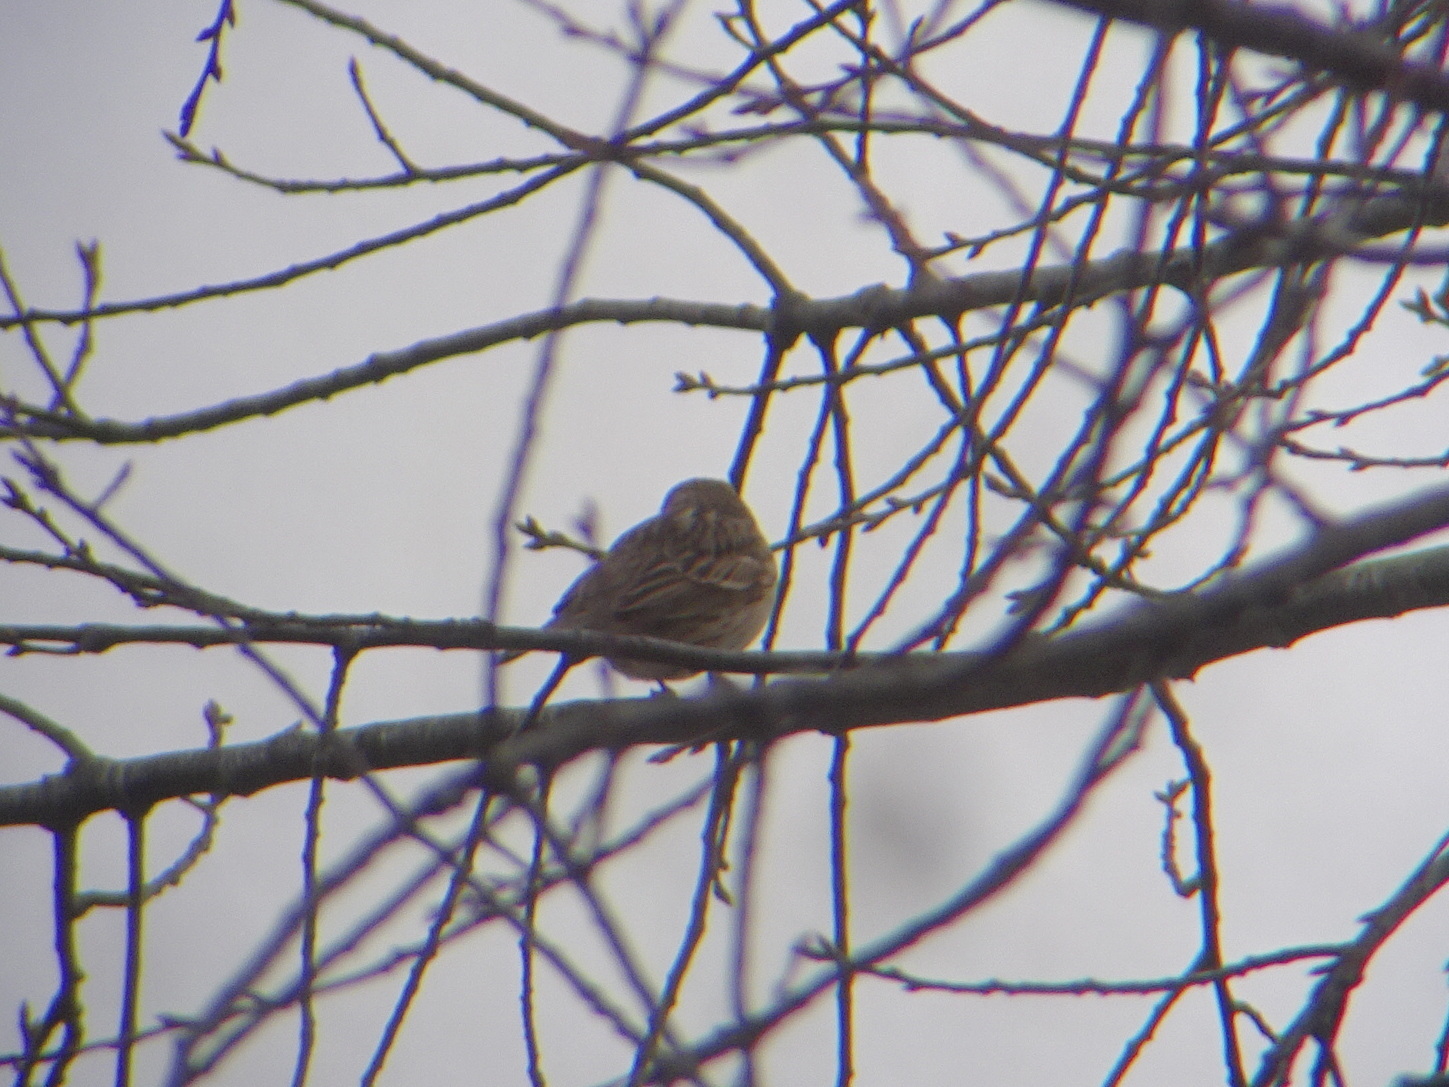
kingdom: Animalia
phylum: Chordata
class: Aves
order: Passeriformes
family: Passerellidae
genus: Pooecetes
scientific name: Pooecetes gramineus
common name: Vesper sparrow
